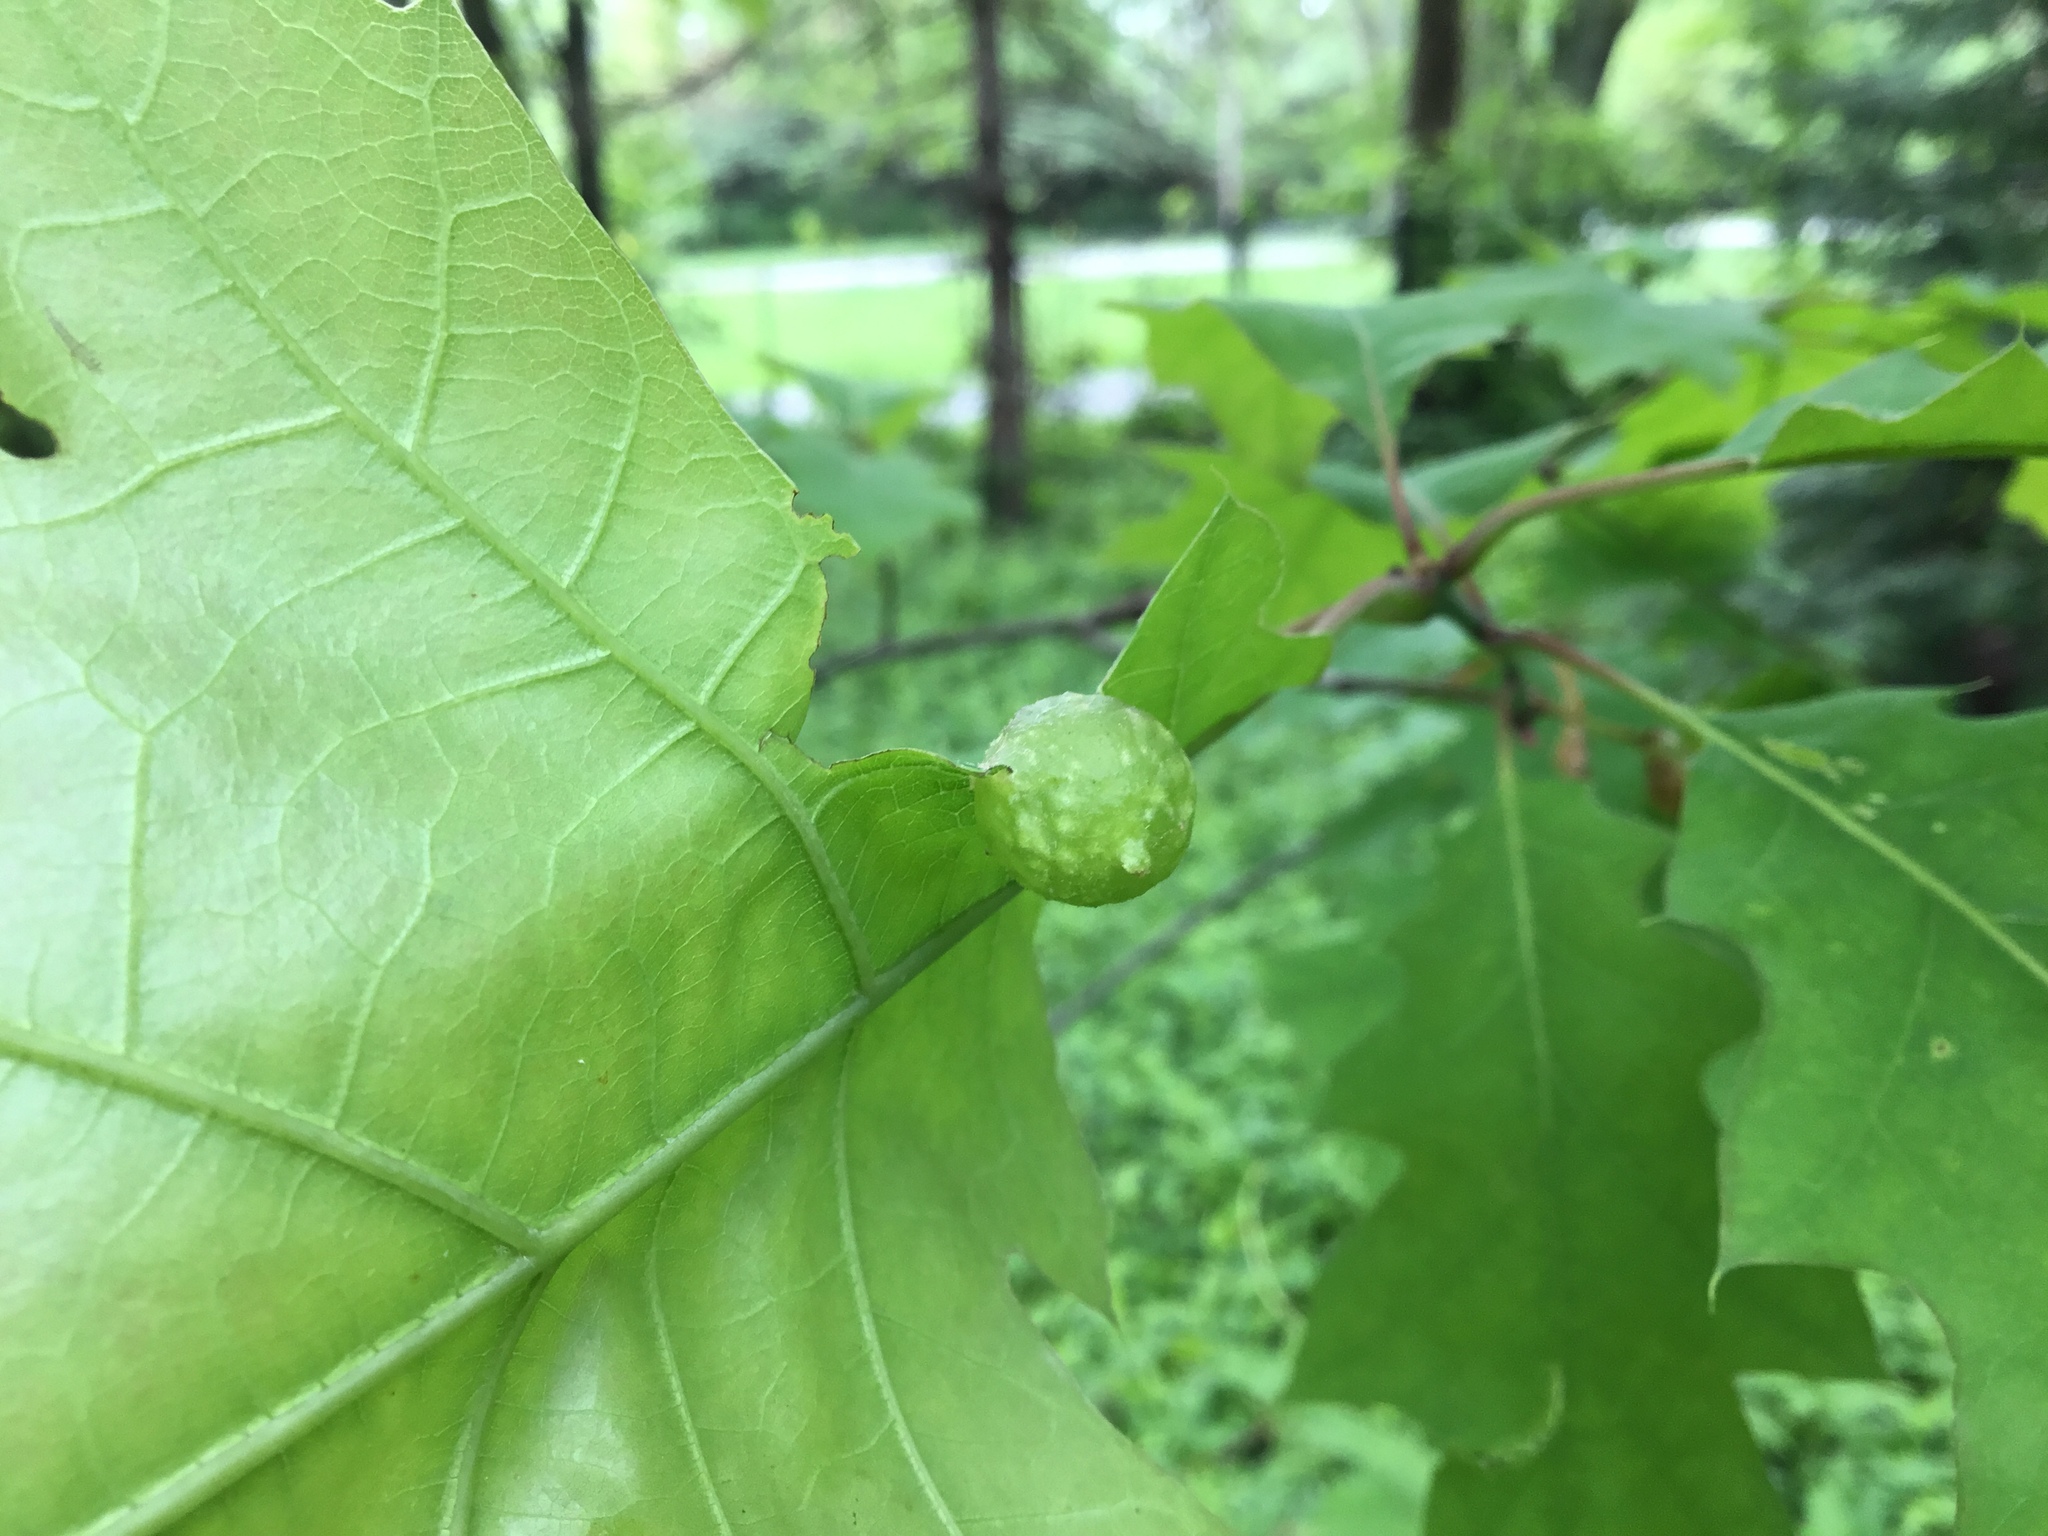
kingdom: Animalia
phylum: Arthropoda
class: Insecta
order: Hymenoptera
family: Cynipidae
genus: Dryocosmus
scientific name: Dryocosmus quercuspalustris
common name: Succulent oak gall wasp
